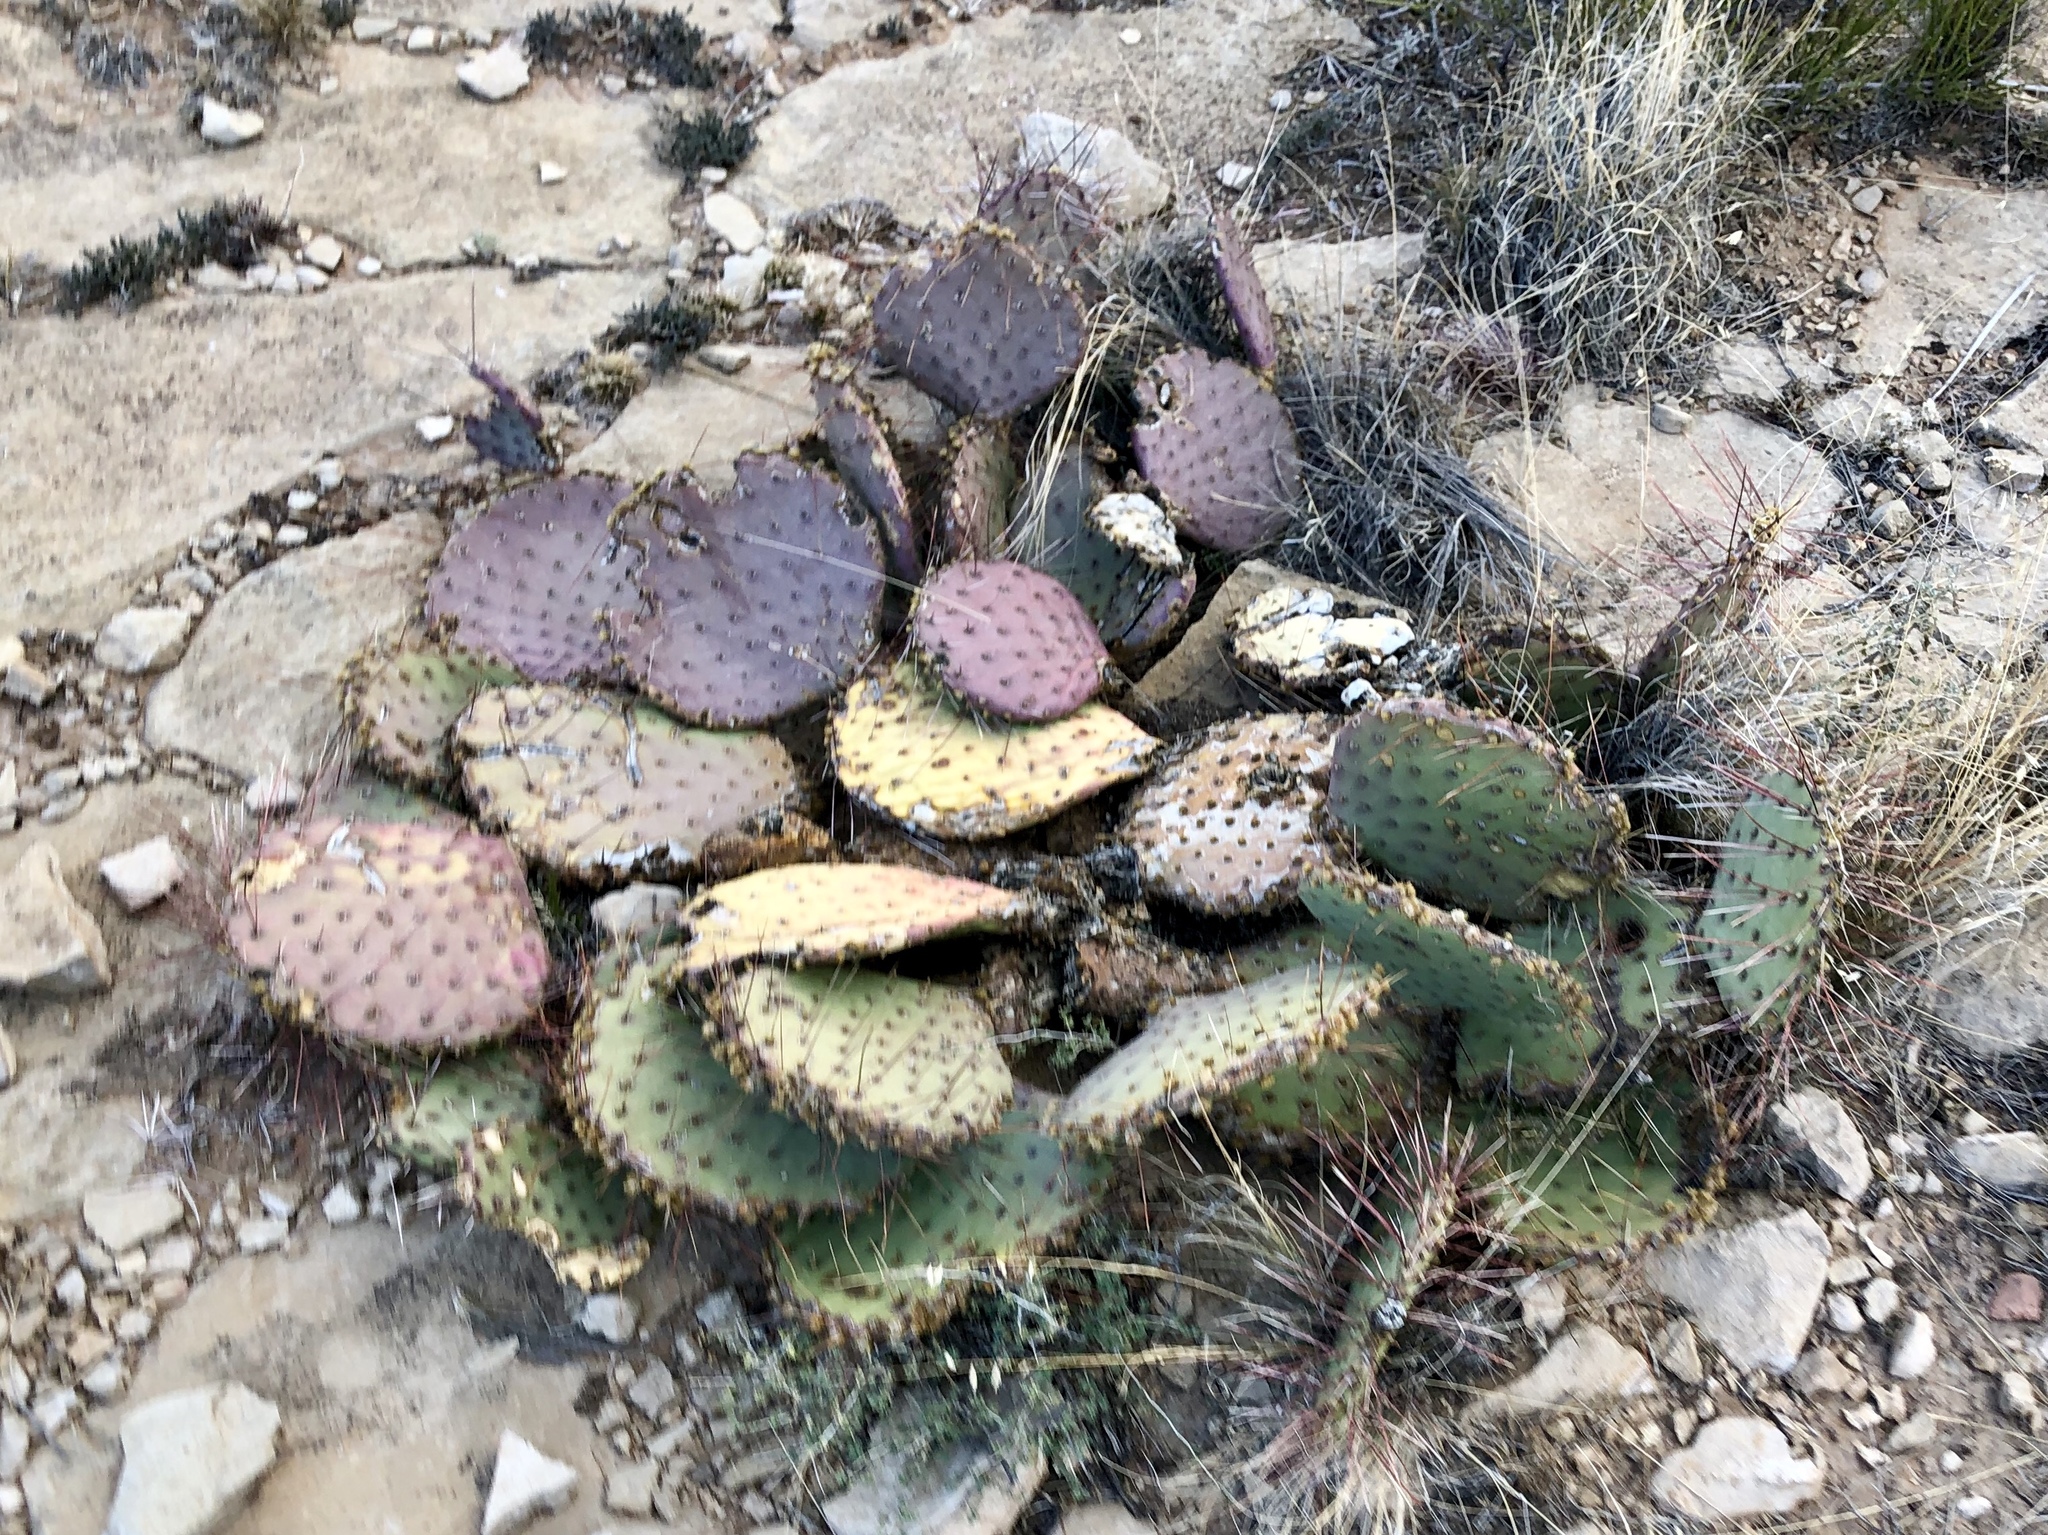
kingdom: Plantae
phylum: Tracheophyta
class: Magnoliopsida
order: Caryophyllales
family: Cactaceae
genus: Opuntia
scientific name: Opuntia macrocentra
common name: Purple prickly-pear
